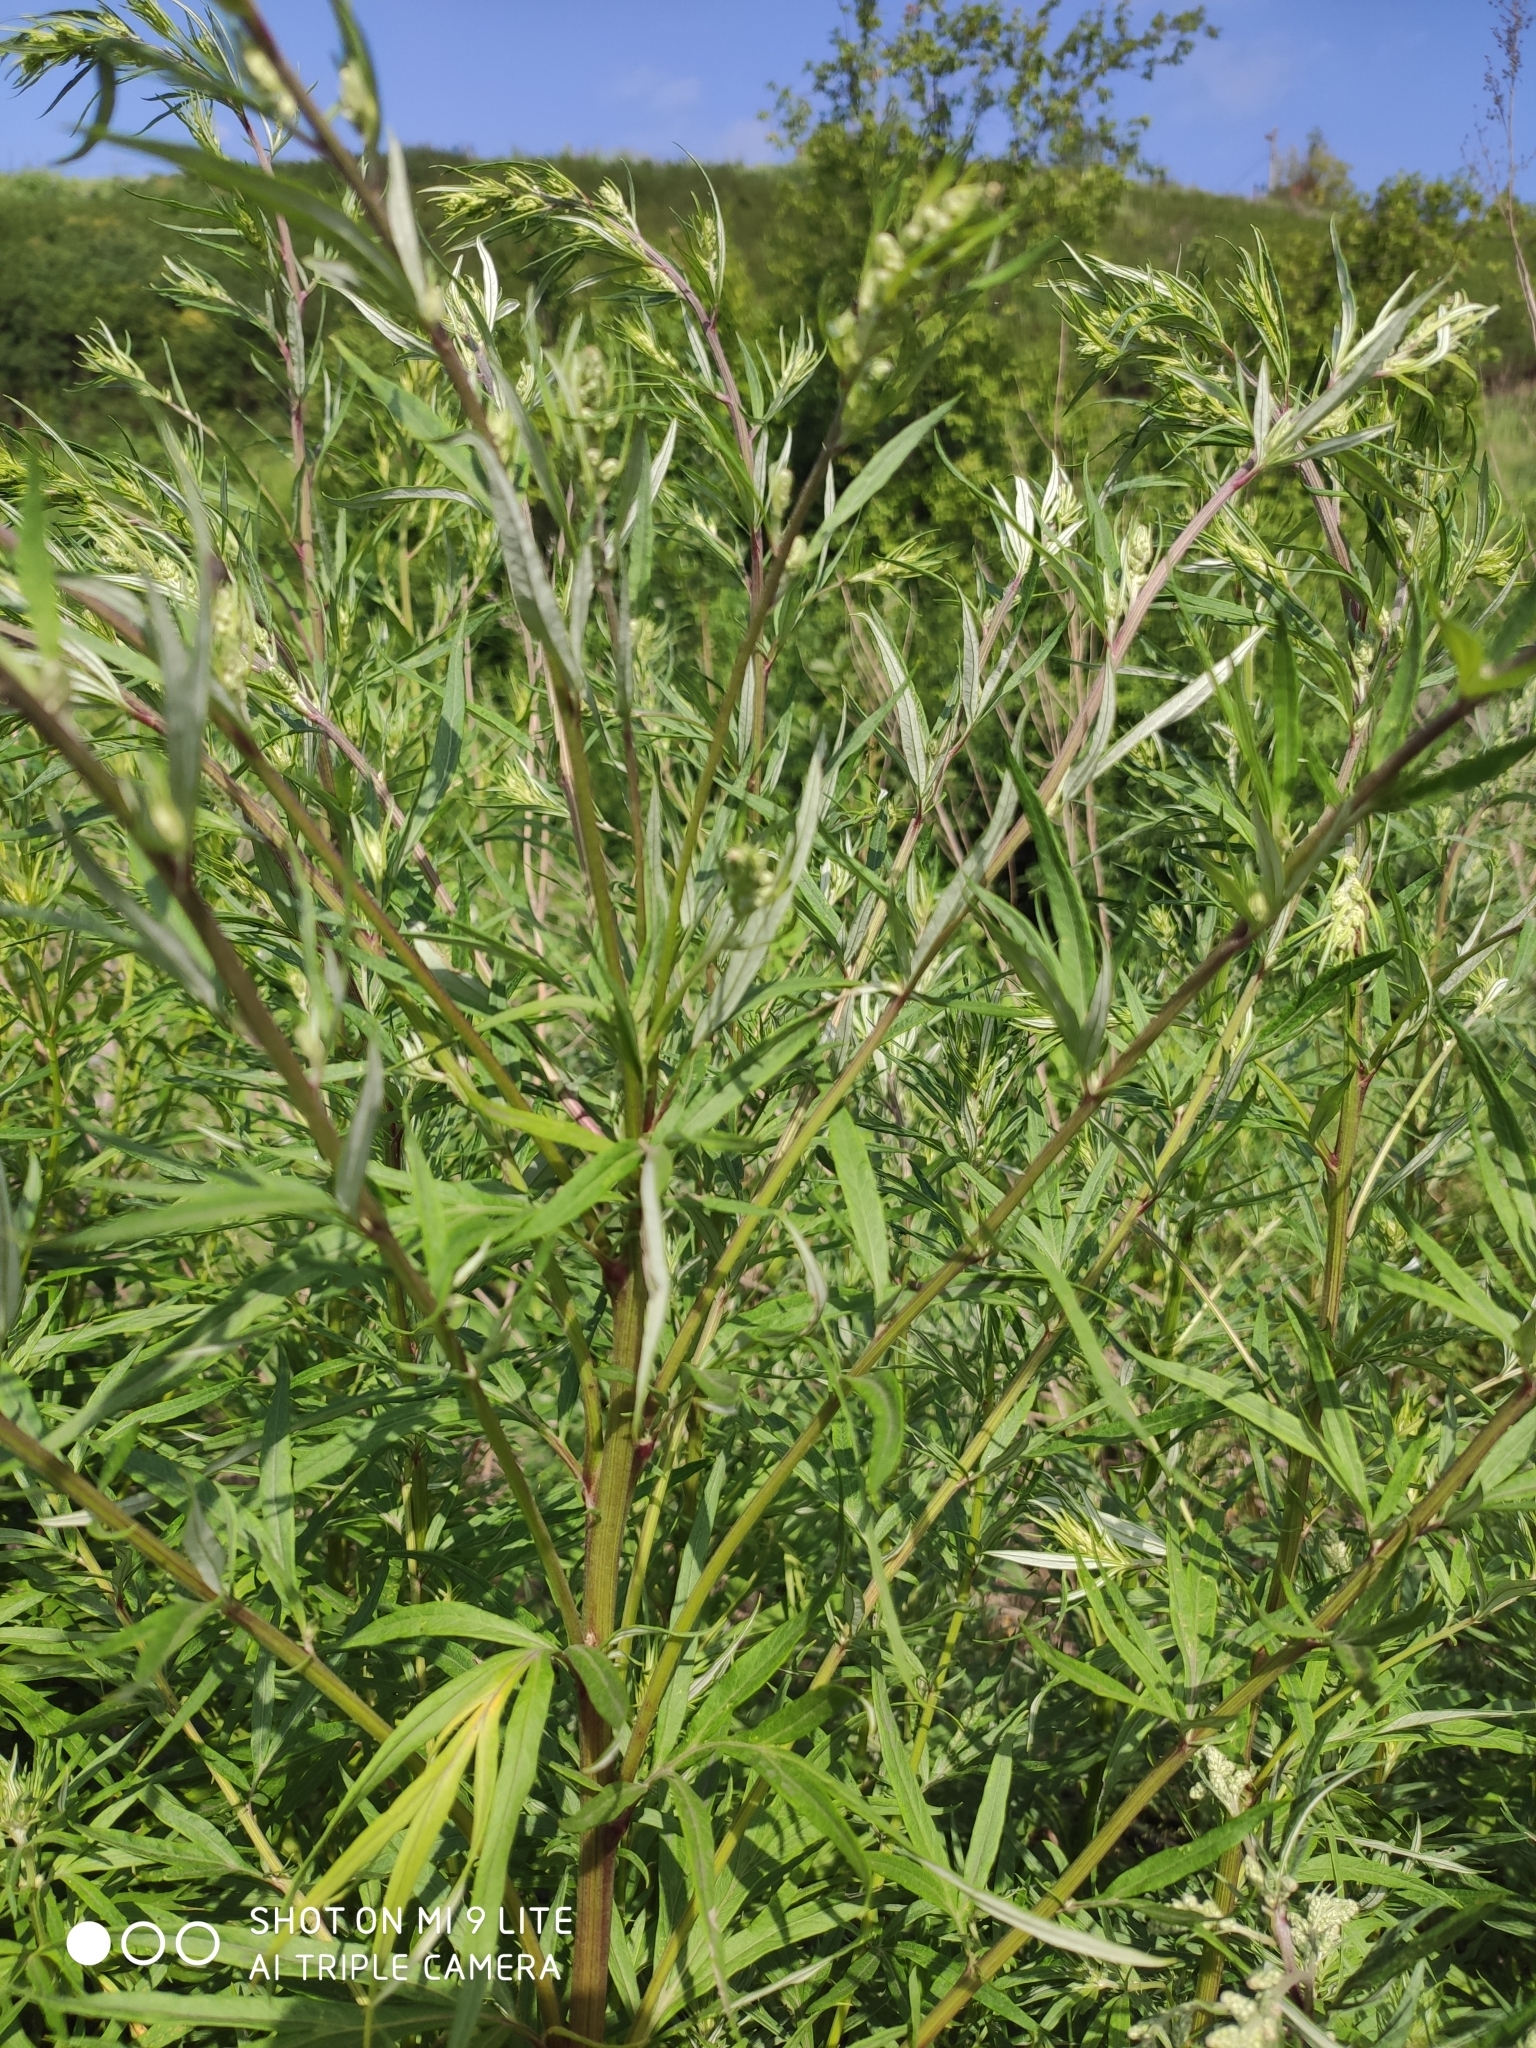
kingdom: Plantae
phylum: Tracheophyta
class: Magnoliopsida
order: Asterales
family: Asteraceae
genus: Artemisia
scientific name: Artemisia vulgaris
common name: Mugwort
